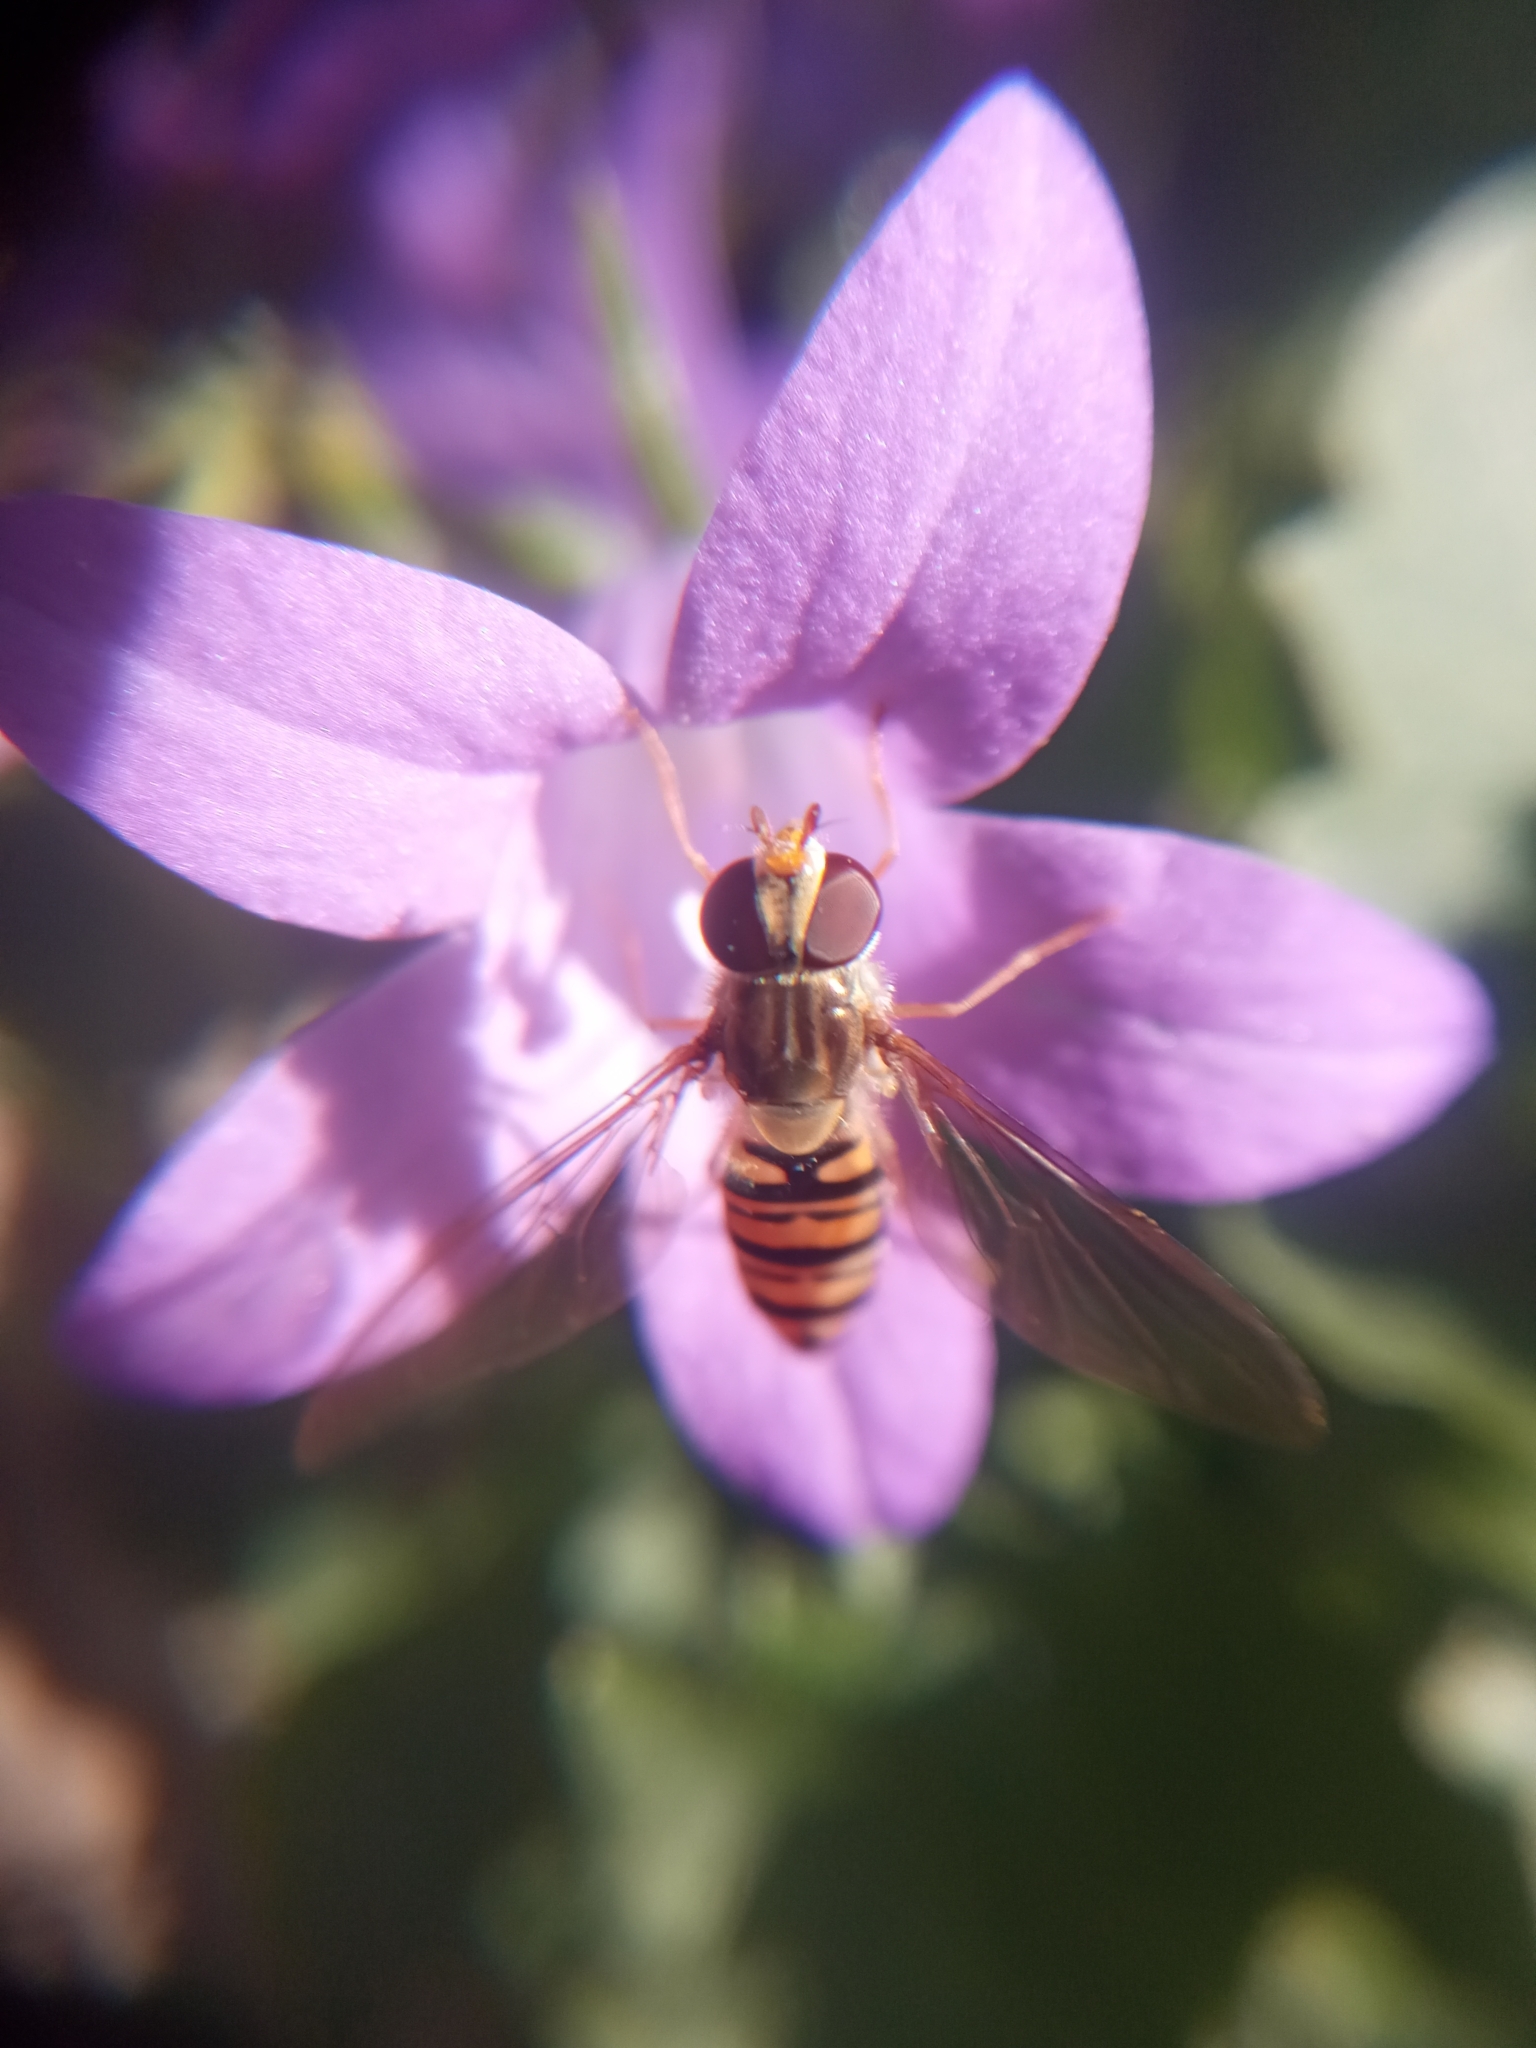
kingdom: Animalia
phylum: Arthropoda
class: Insecta
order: Diptera
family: Syrphidae
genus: Episyrphus
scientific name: Episyrphus balteatus
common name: Marmalade hoverfly
